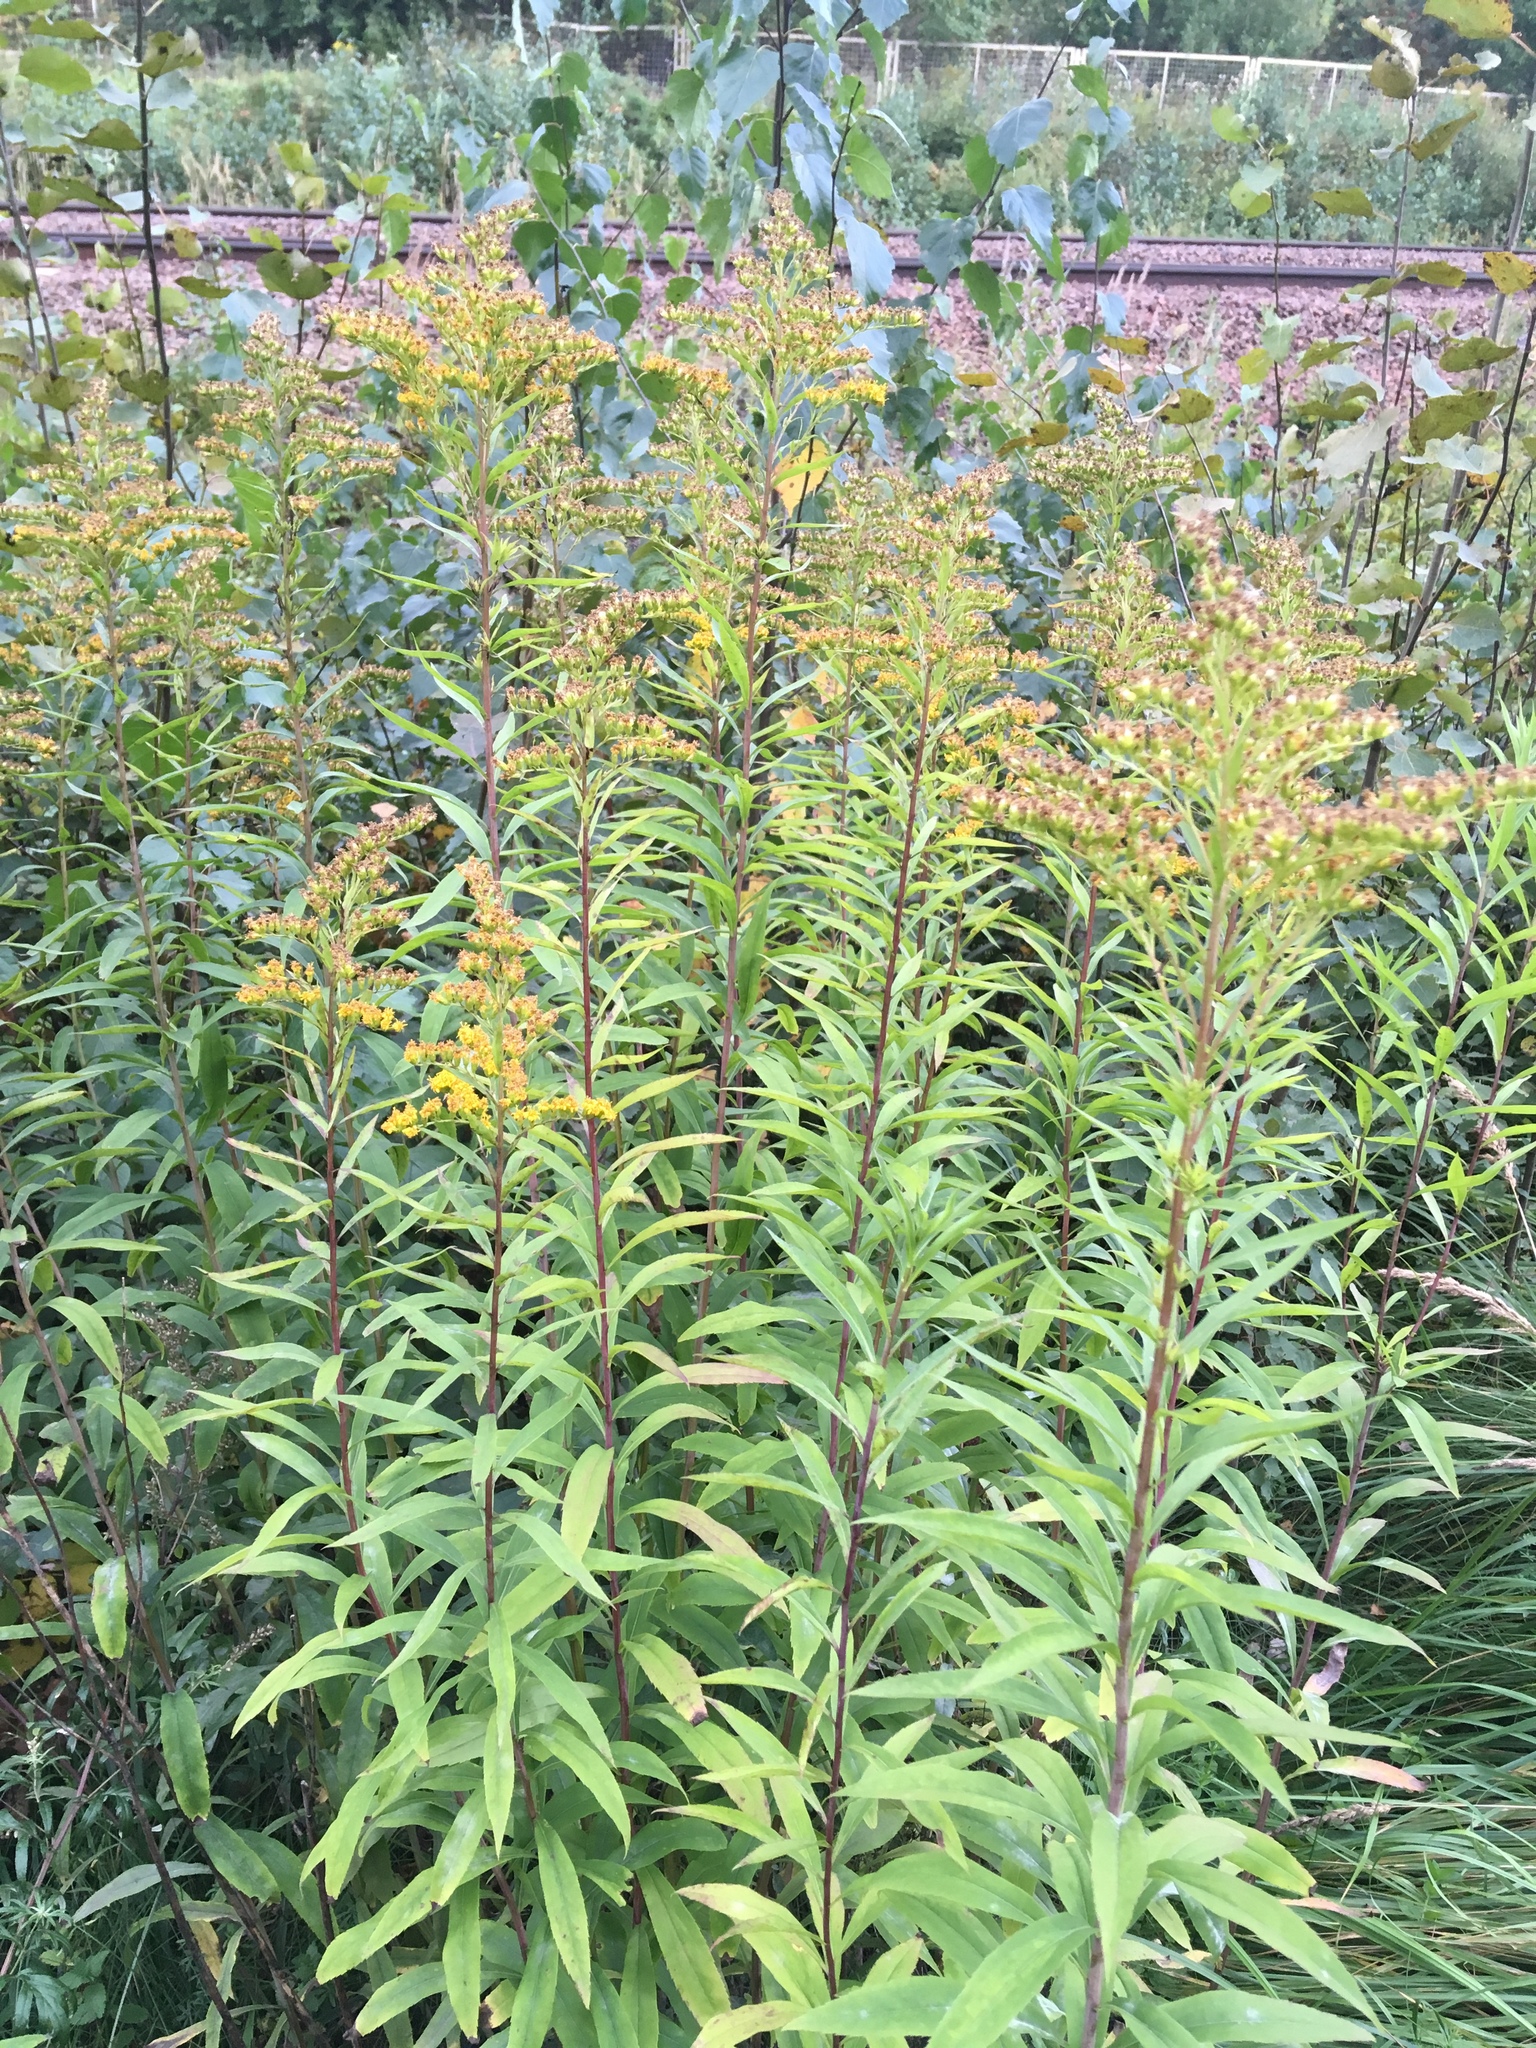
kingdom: Plantae
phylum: Tracheophyta
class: Magnoliopsida
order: Asterales
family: Asteraceae
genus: Solidago
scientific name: Solidago gigantea
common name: Giant goldenrod
